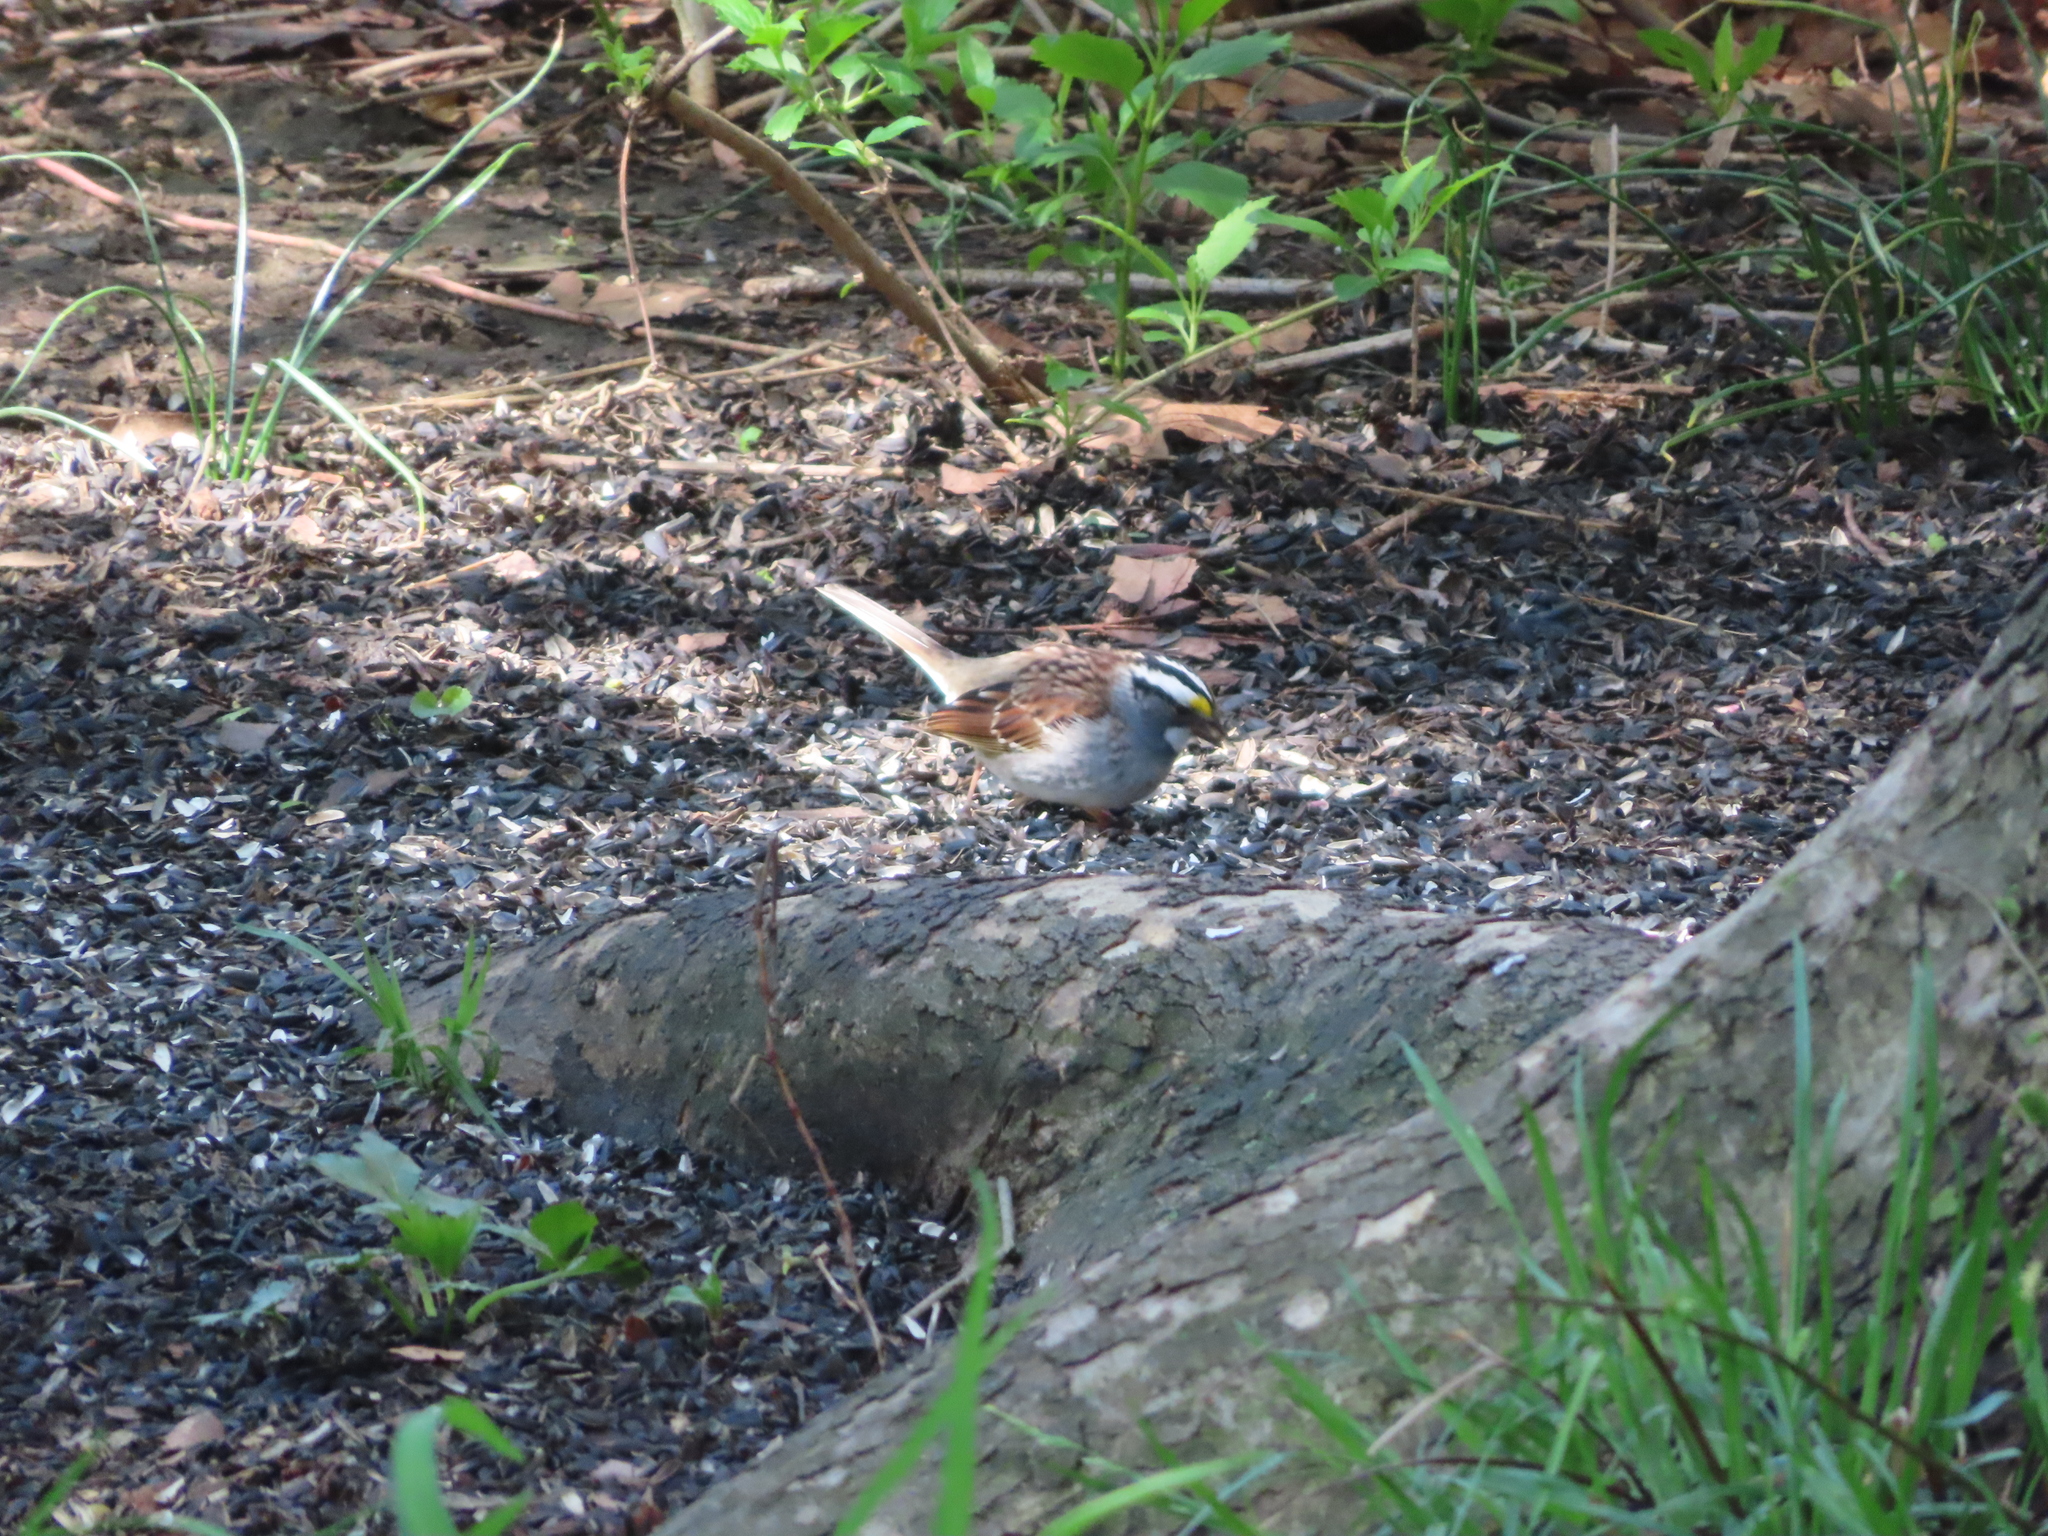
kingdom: Animalia
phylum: Chordata
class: Aves
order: Passeriformes
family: Passerellidae
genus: Zonotrichia
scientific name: Zonotrichia albicollis
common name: White-throated sparrow
